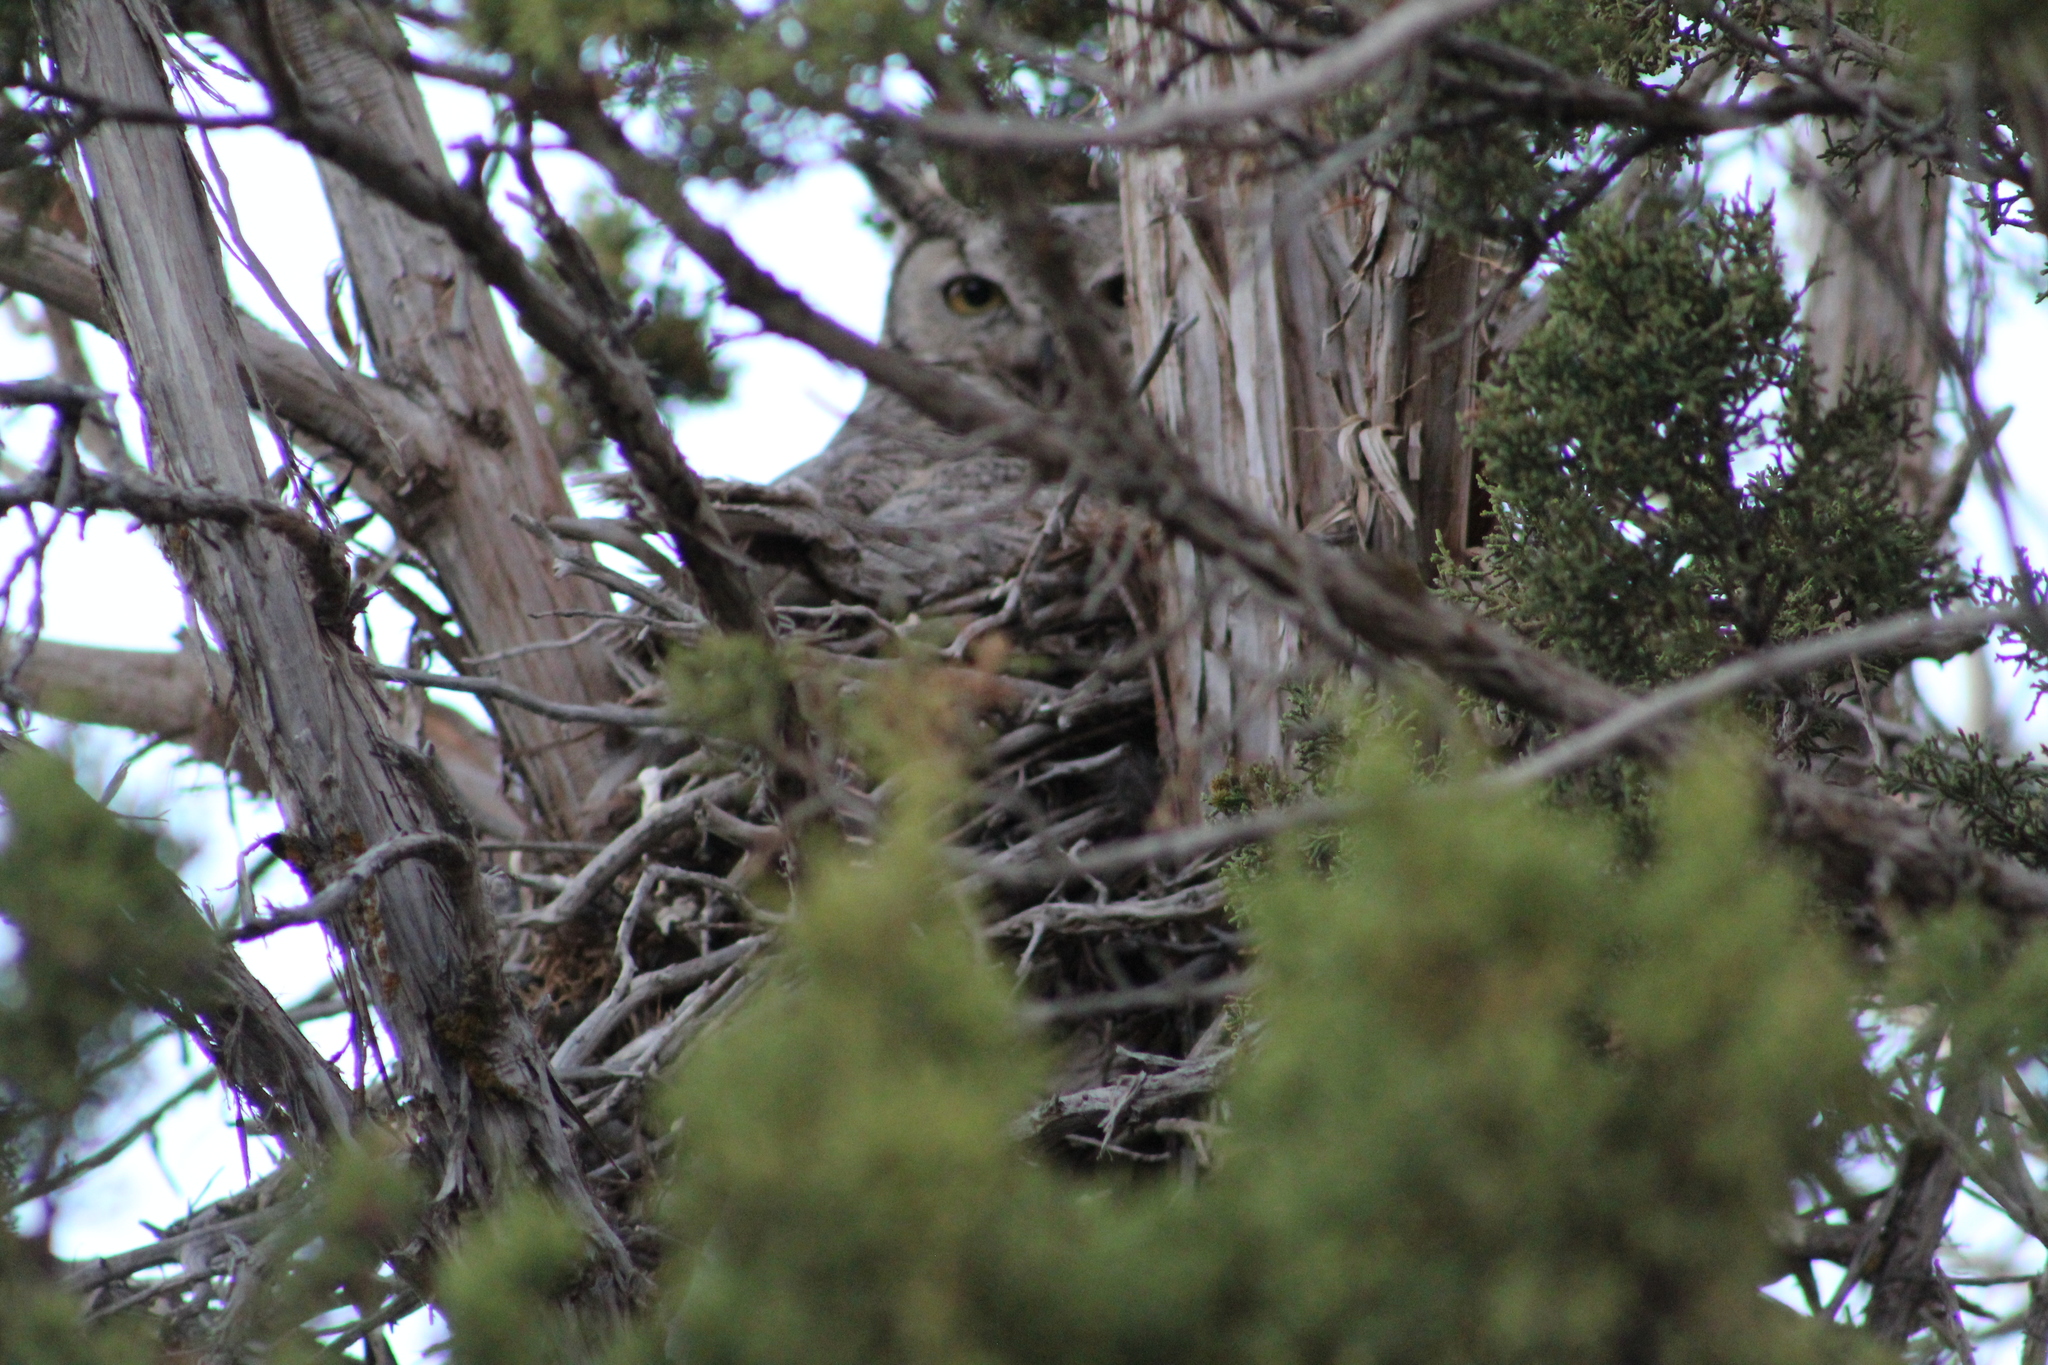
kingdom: Animalia
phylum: Chordata
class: Aves
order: Strigiformes
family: Strigidae
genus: Bubo
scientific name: Bubo virginianus
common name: Great horned owl
